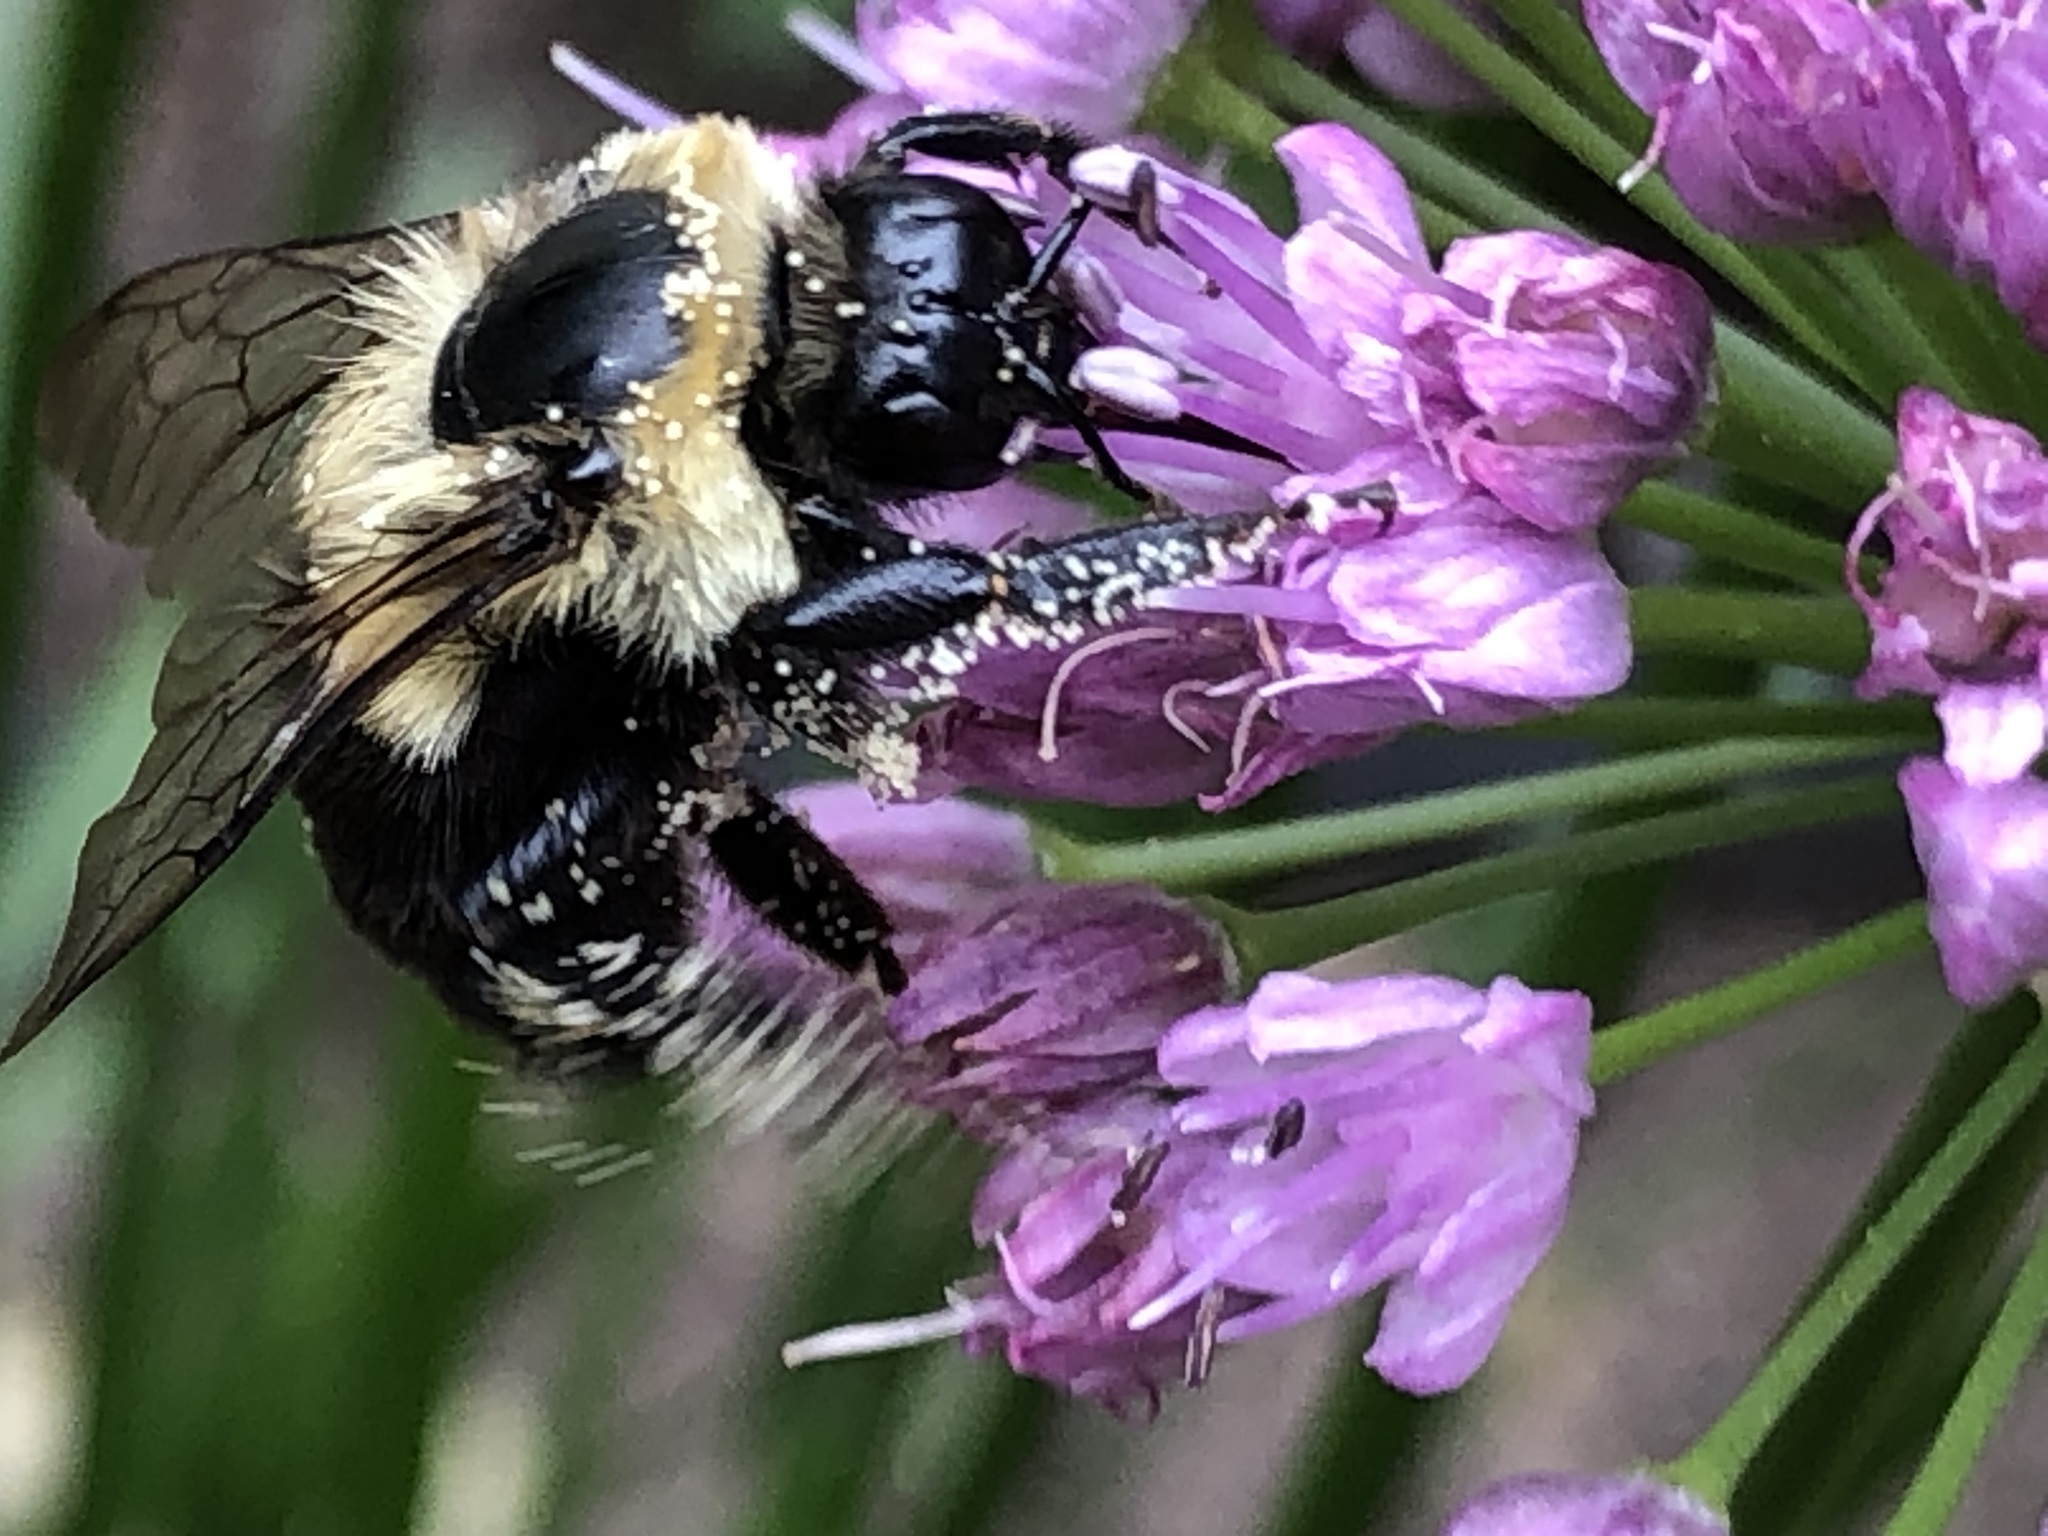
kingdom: Animalia
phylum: Arthropoda
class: Insecta
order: Hymenoptera
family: Apidae
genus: Bombus
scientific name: Bombus impatiens
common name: Common eastern bumble bee
